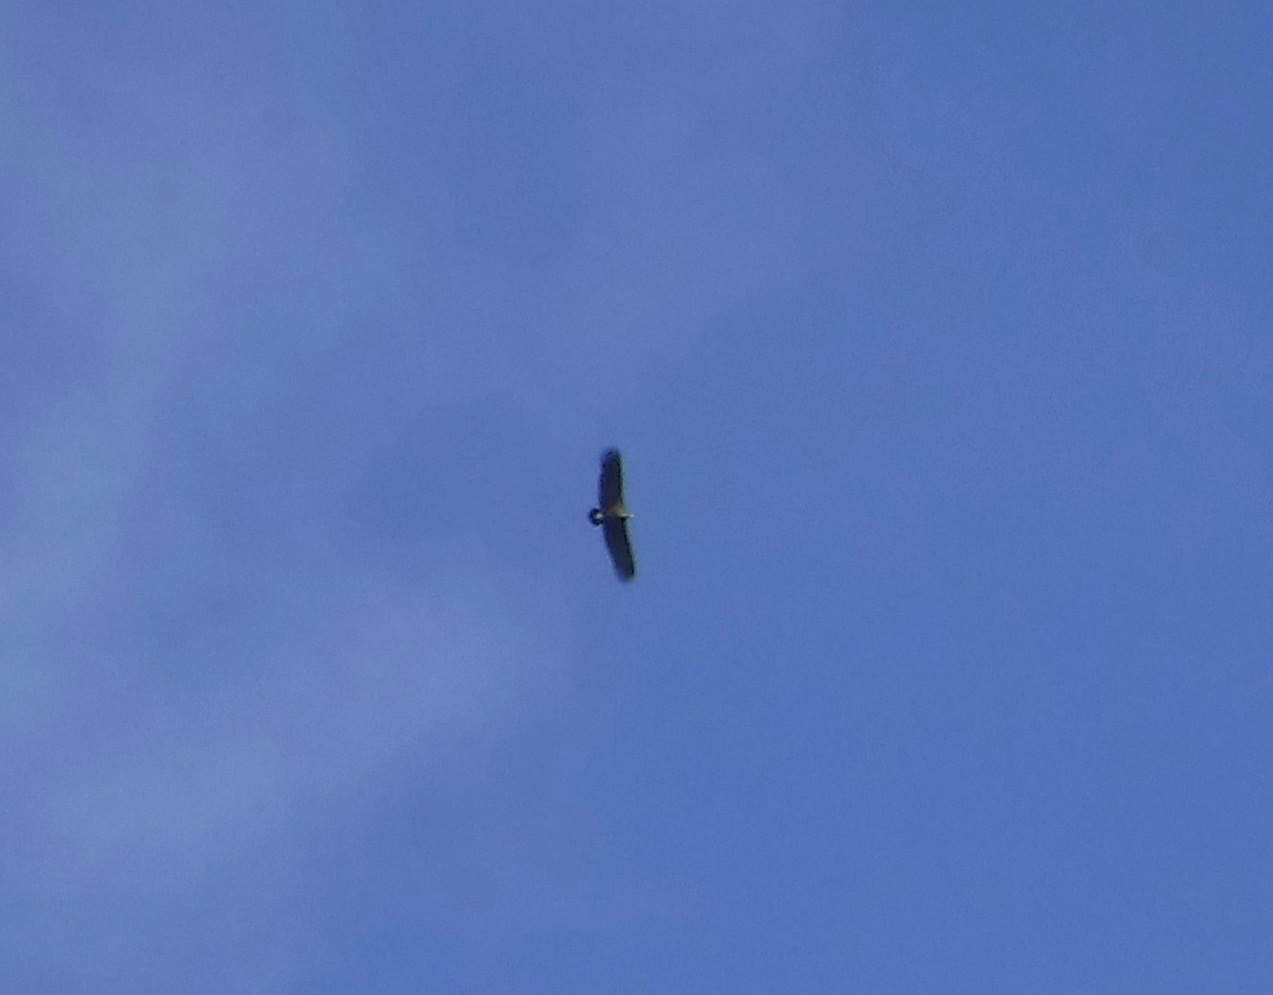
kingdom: Animalia
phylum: Chordata
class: Aves
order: Accipitriformes
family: Accipitridae
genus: Aegypius
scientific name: Aegypius monachus
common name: Cinereous vulture
